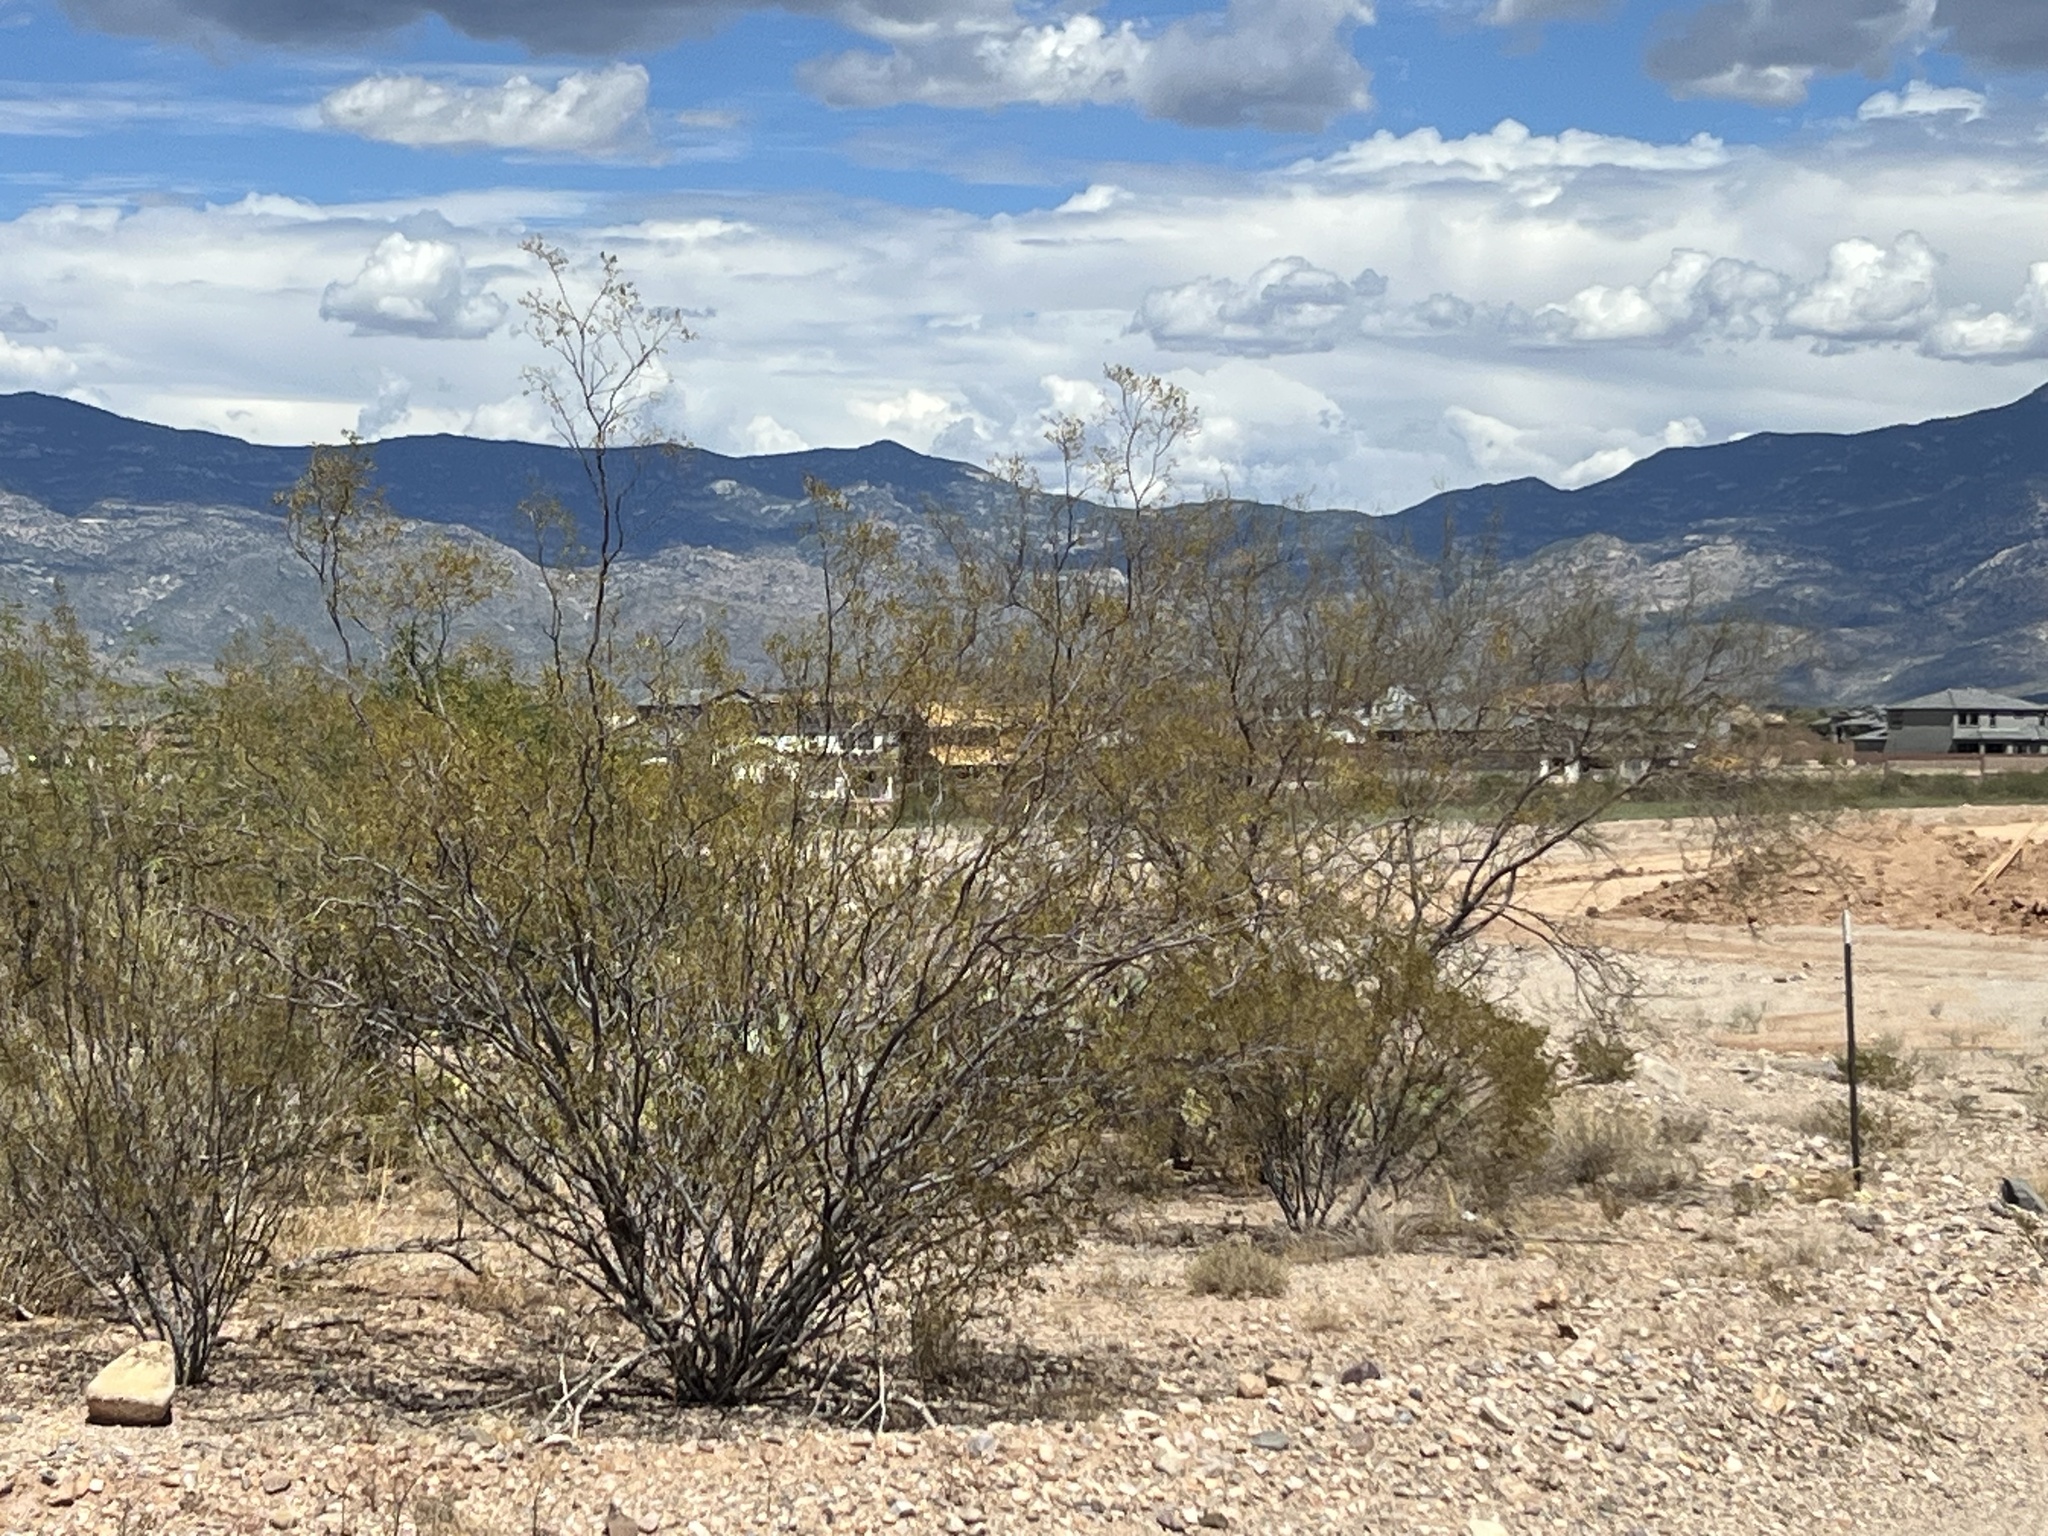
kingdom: Plantae
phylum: Tracheophyta
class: Magnoliopsida
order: Zygophyllales
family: Zygophyllaceae
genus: Larrea
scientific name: Larrea tridentata
